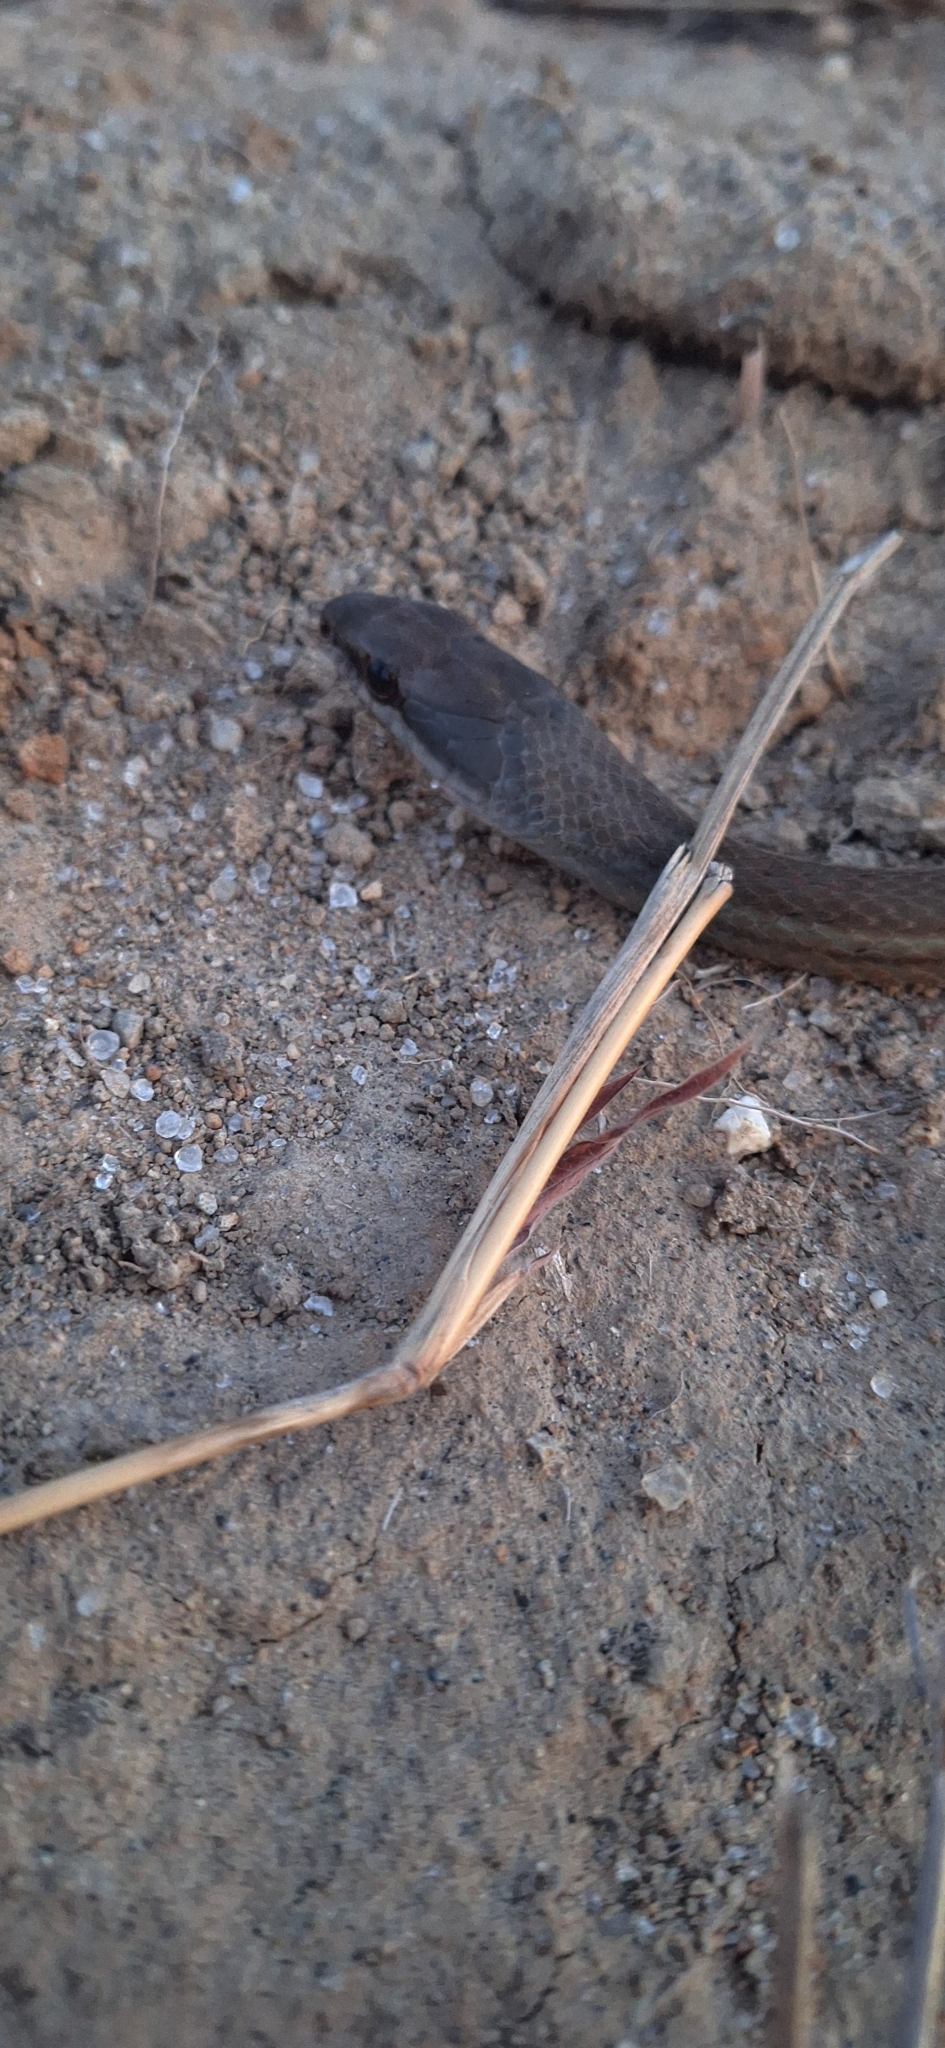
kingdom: Animalia
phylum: Chordata
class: Squamata
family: Colubridae
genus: Mastigodryas
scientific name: Mastigodryas alternatus
